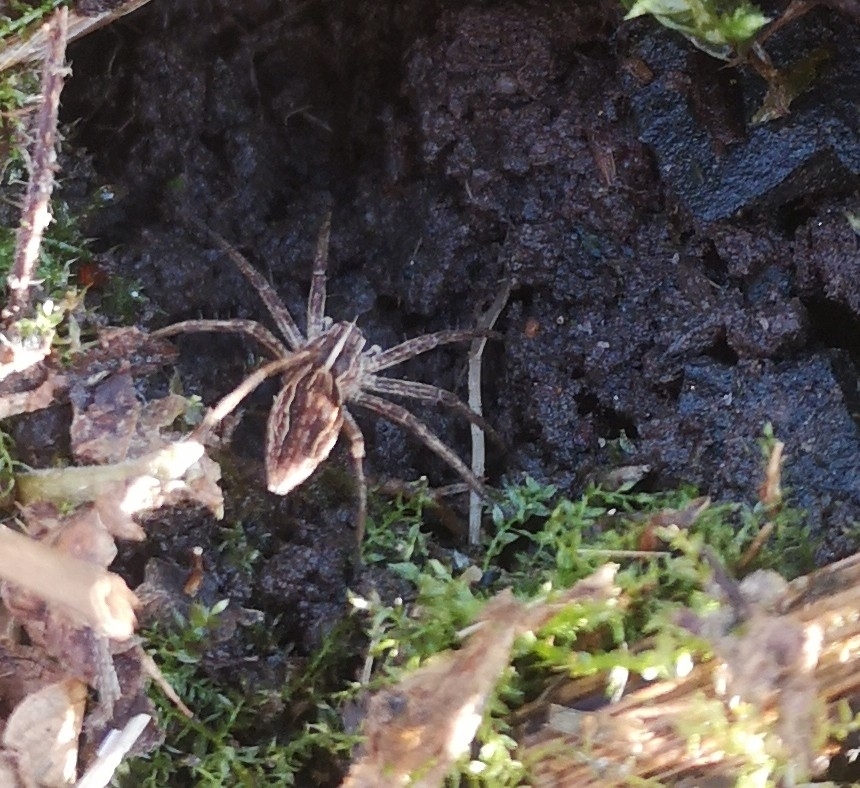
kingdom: Animalia
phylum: Arthropoda
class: Arachnida
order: Araneae
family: Pisauridae
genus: Pisaura
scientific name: Pisaura mirabilis
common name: Tent spider
